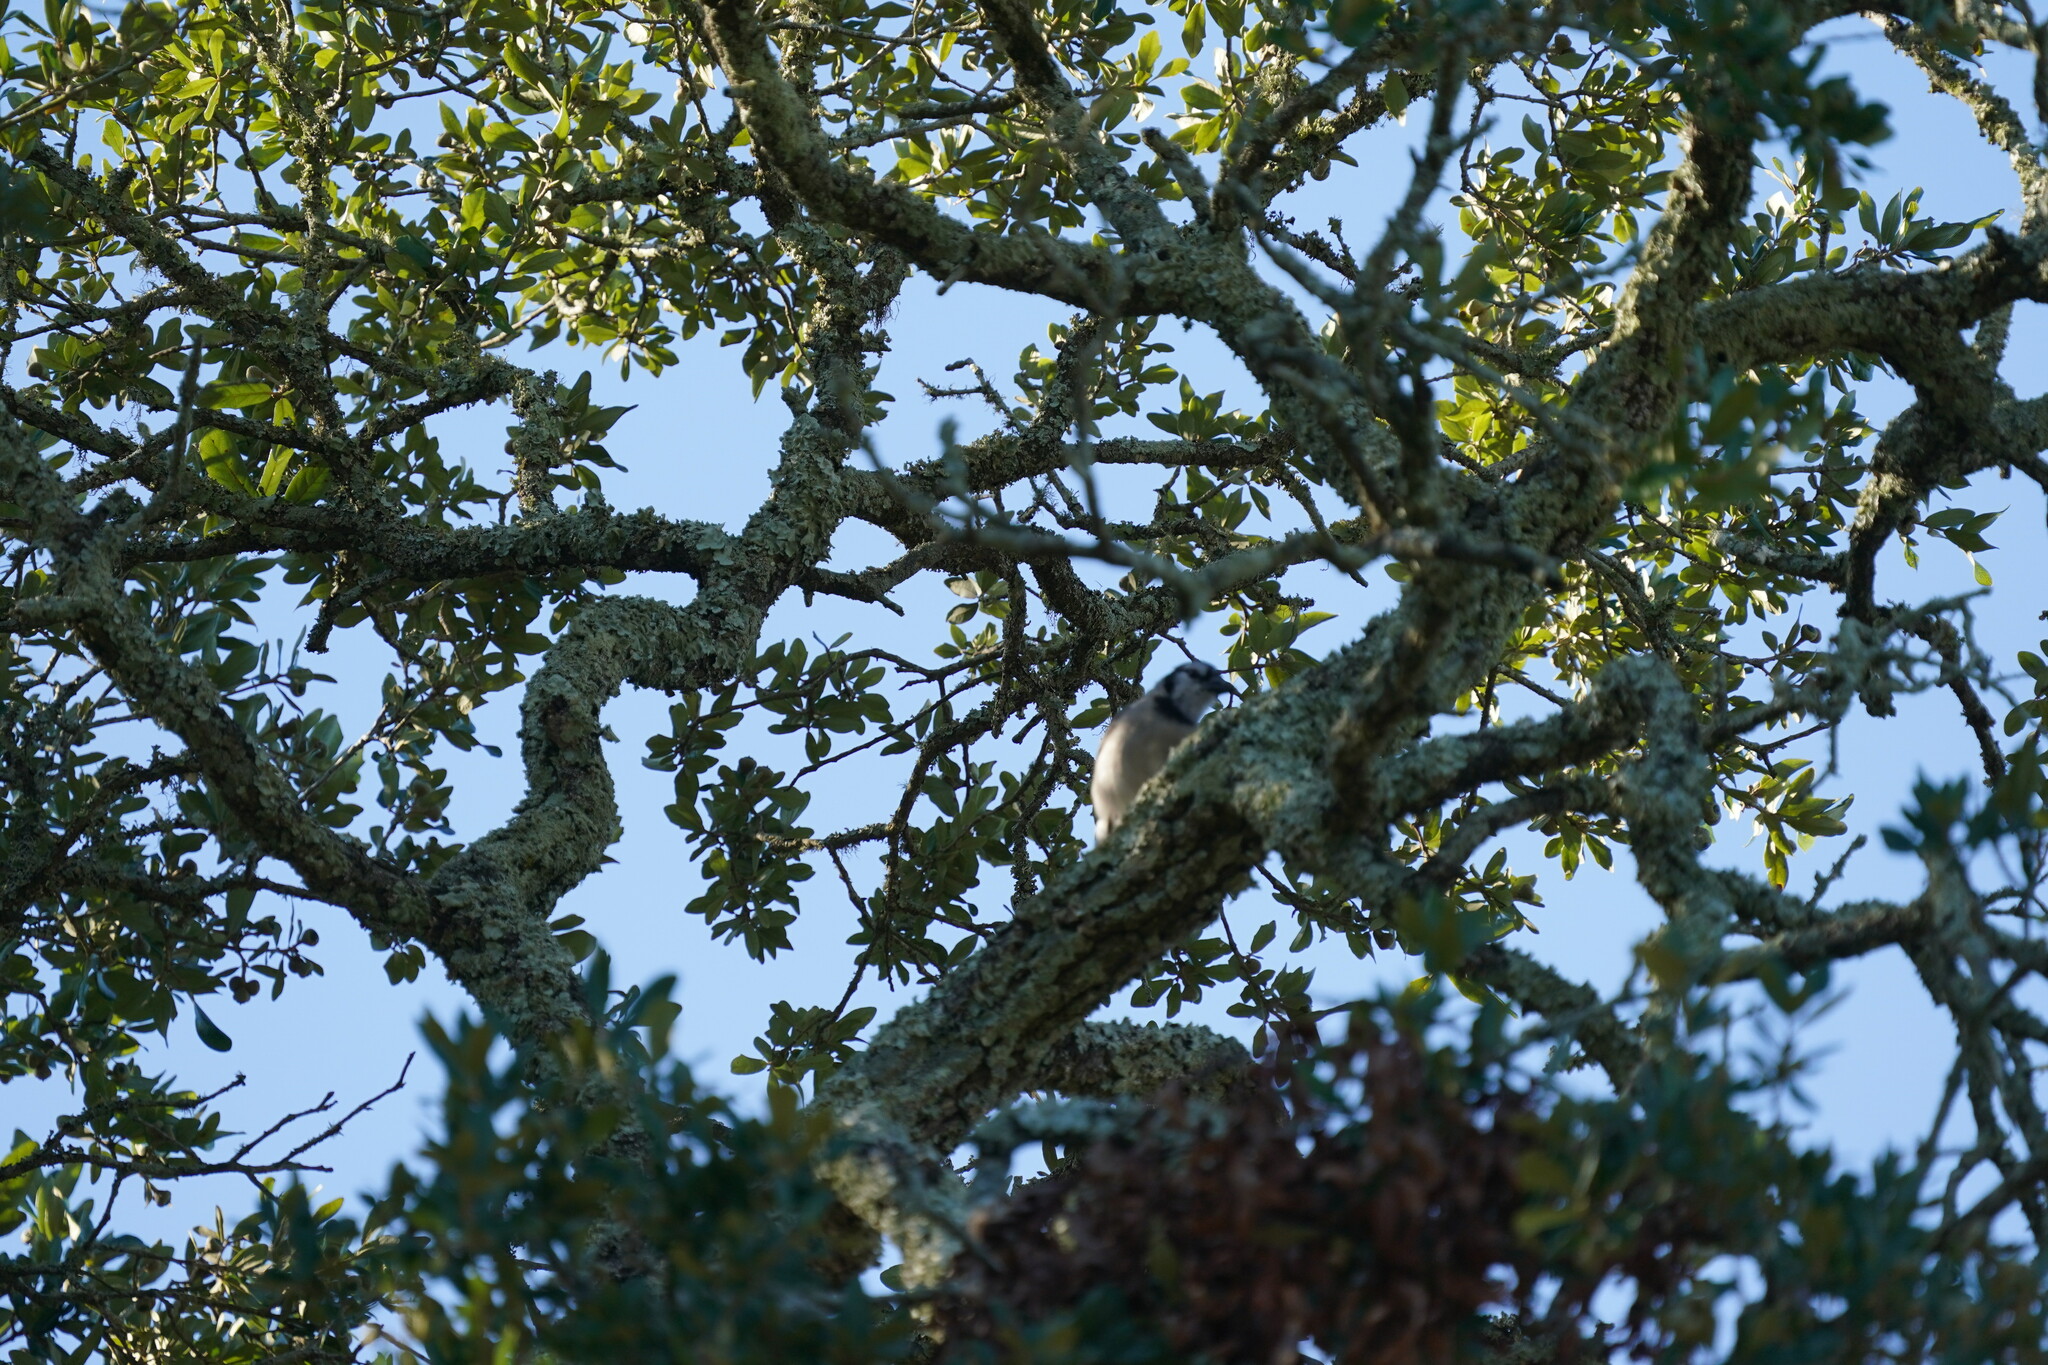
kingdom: Animalia
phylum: Chordata
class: Aves
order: Passeriformes
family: Corvidae
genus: Cyanocitta
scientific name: Cyanocitta cristata
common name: Blue jay
